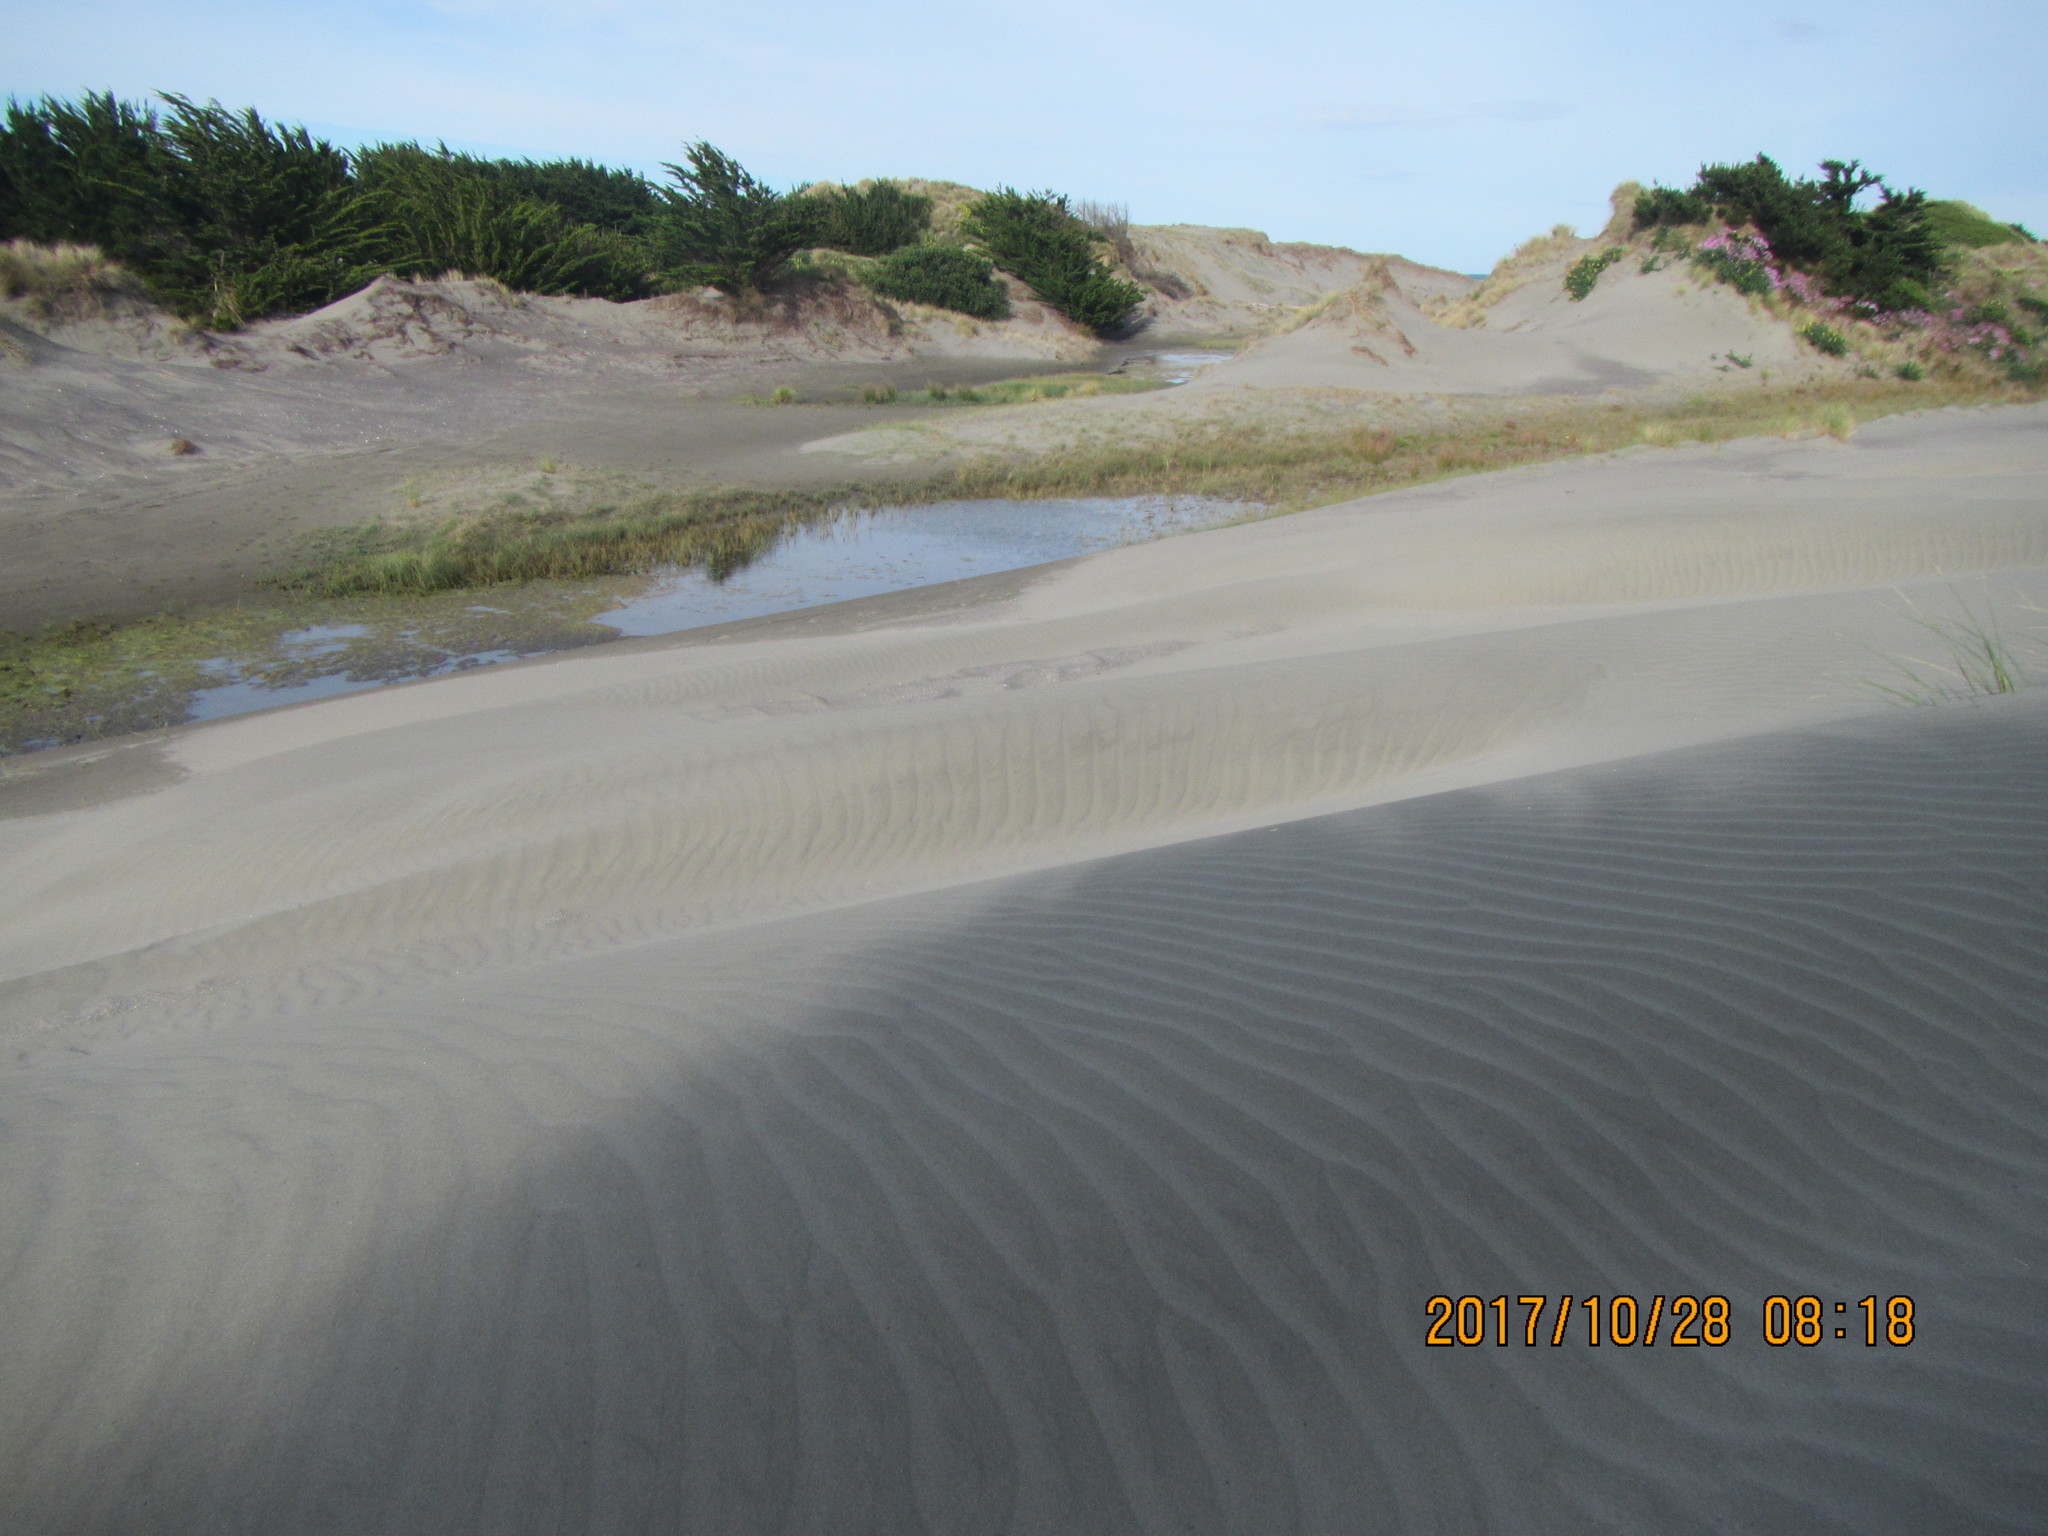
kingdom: Plantae
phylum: Tracheophyta
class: Pinopsida
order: Pinales
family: Cupressaceae
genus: Cupressus
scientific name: Cupressus macrocarpa
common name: Monterey cypress
